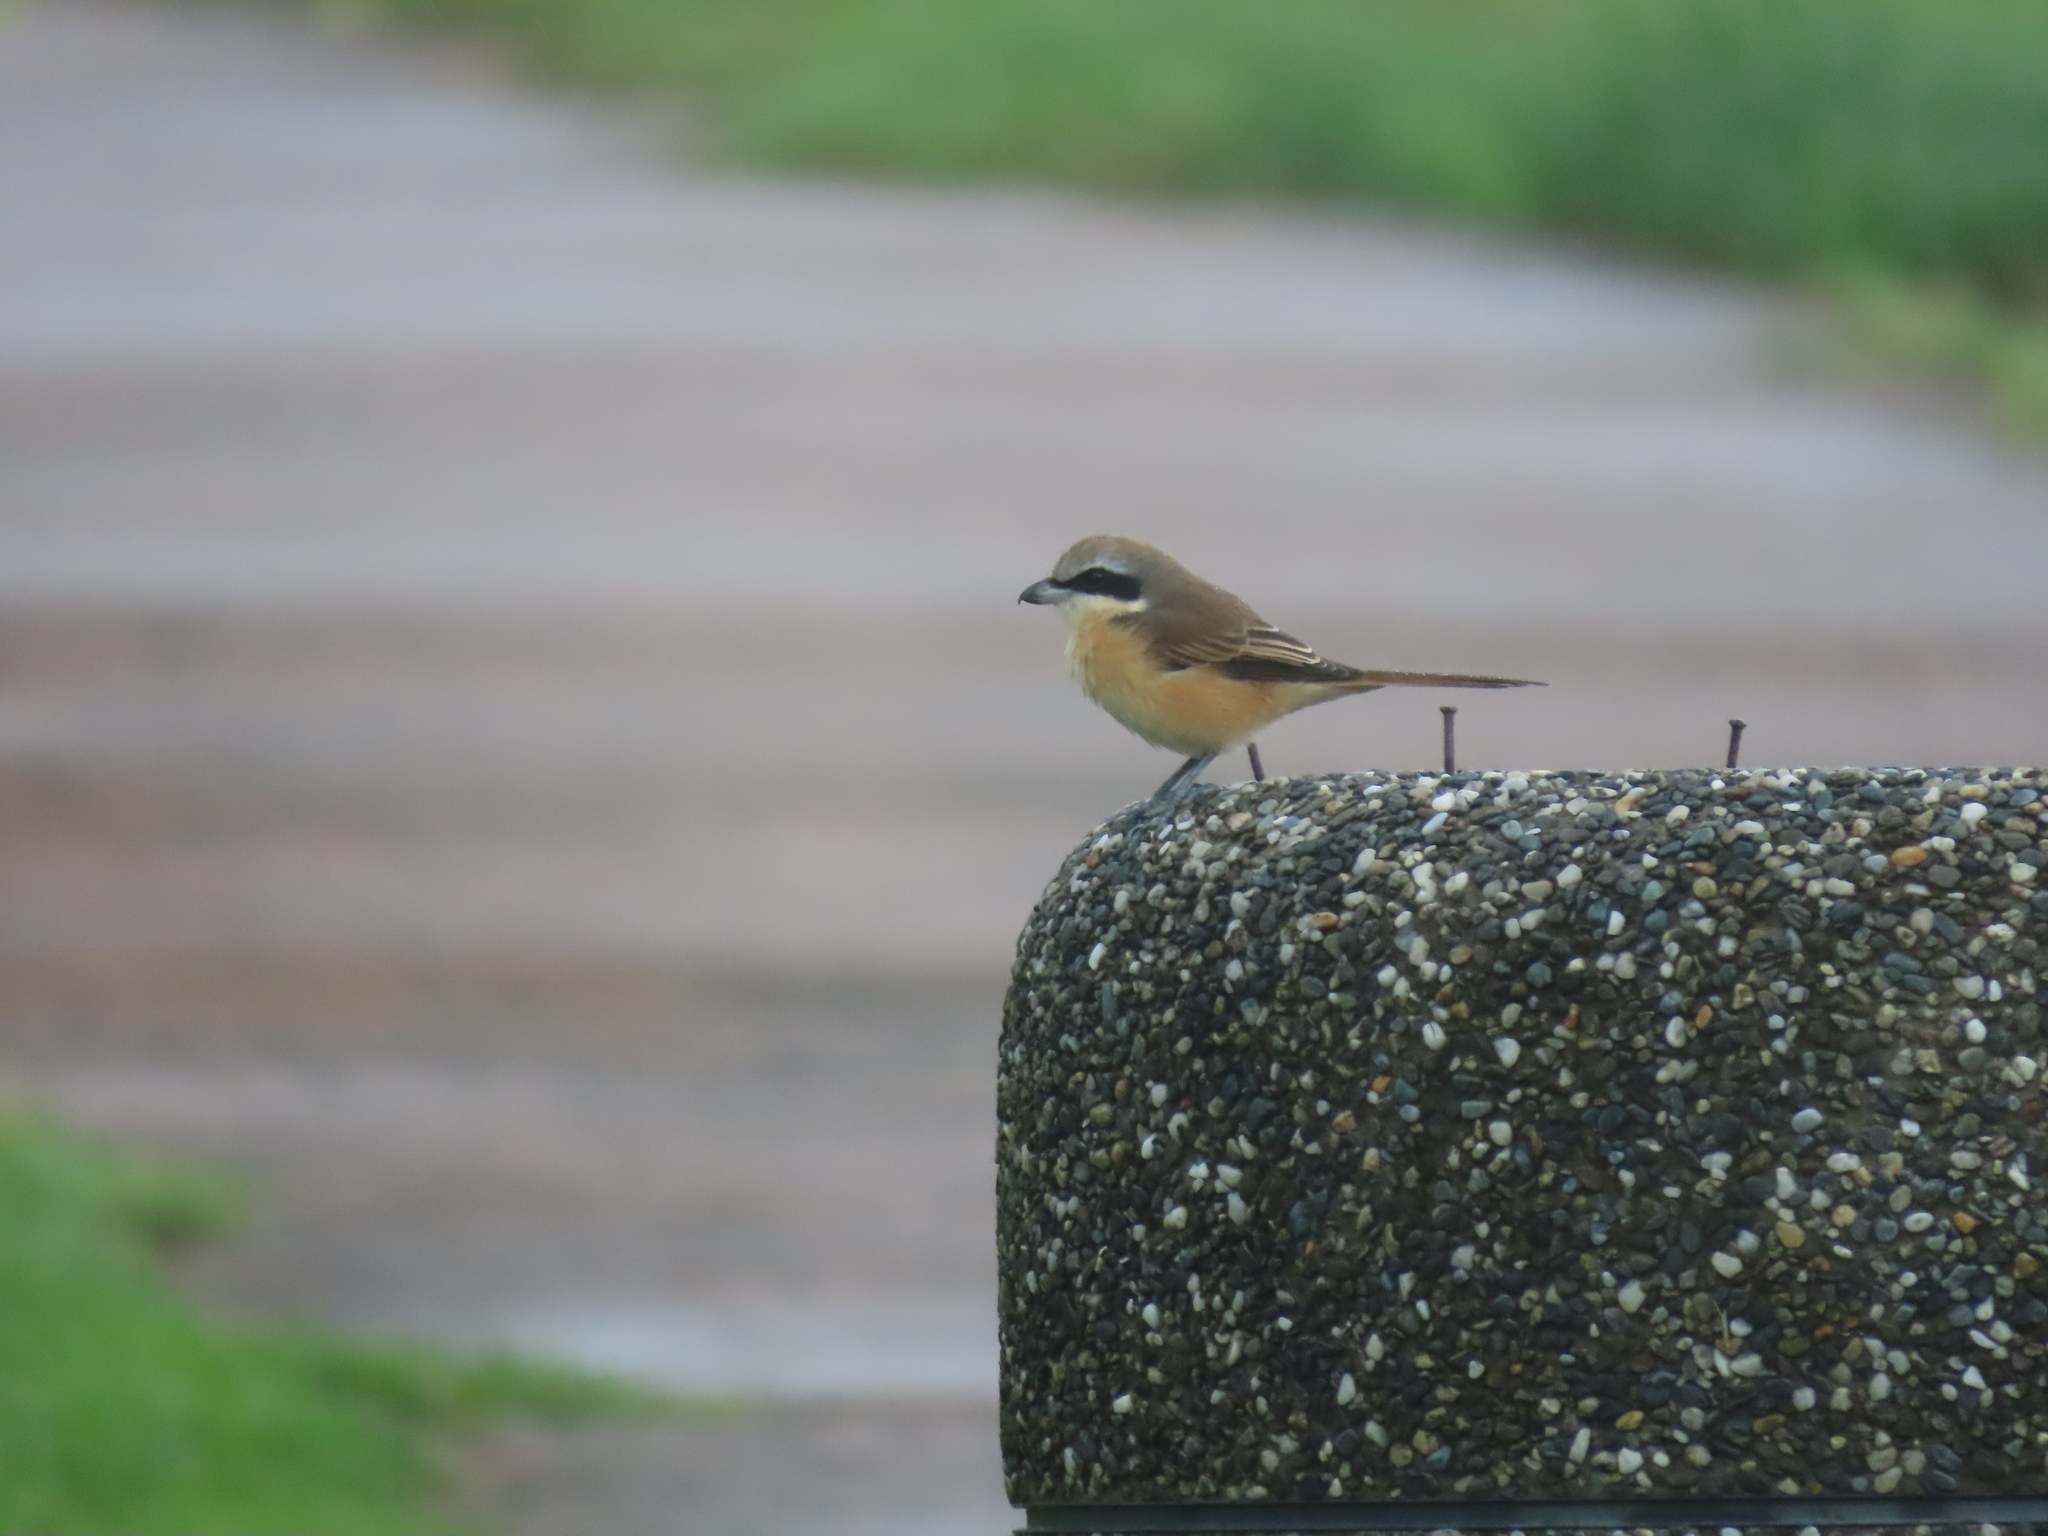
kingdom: Animalia
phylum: Chordata
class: Aves
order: Passeriformes
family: Laniidae
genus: Lanius
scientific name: Lanius cristatus
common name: Brown shrike
